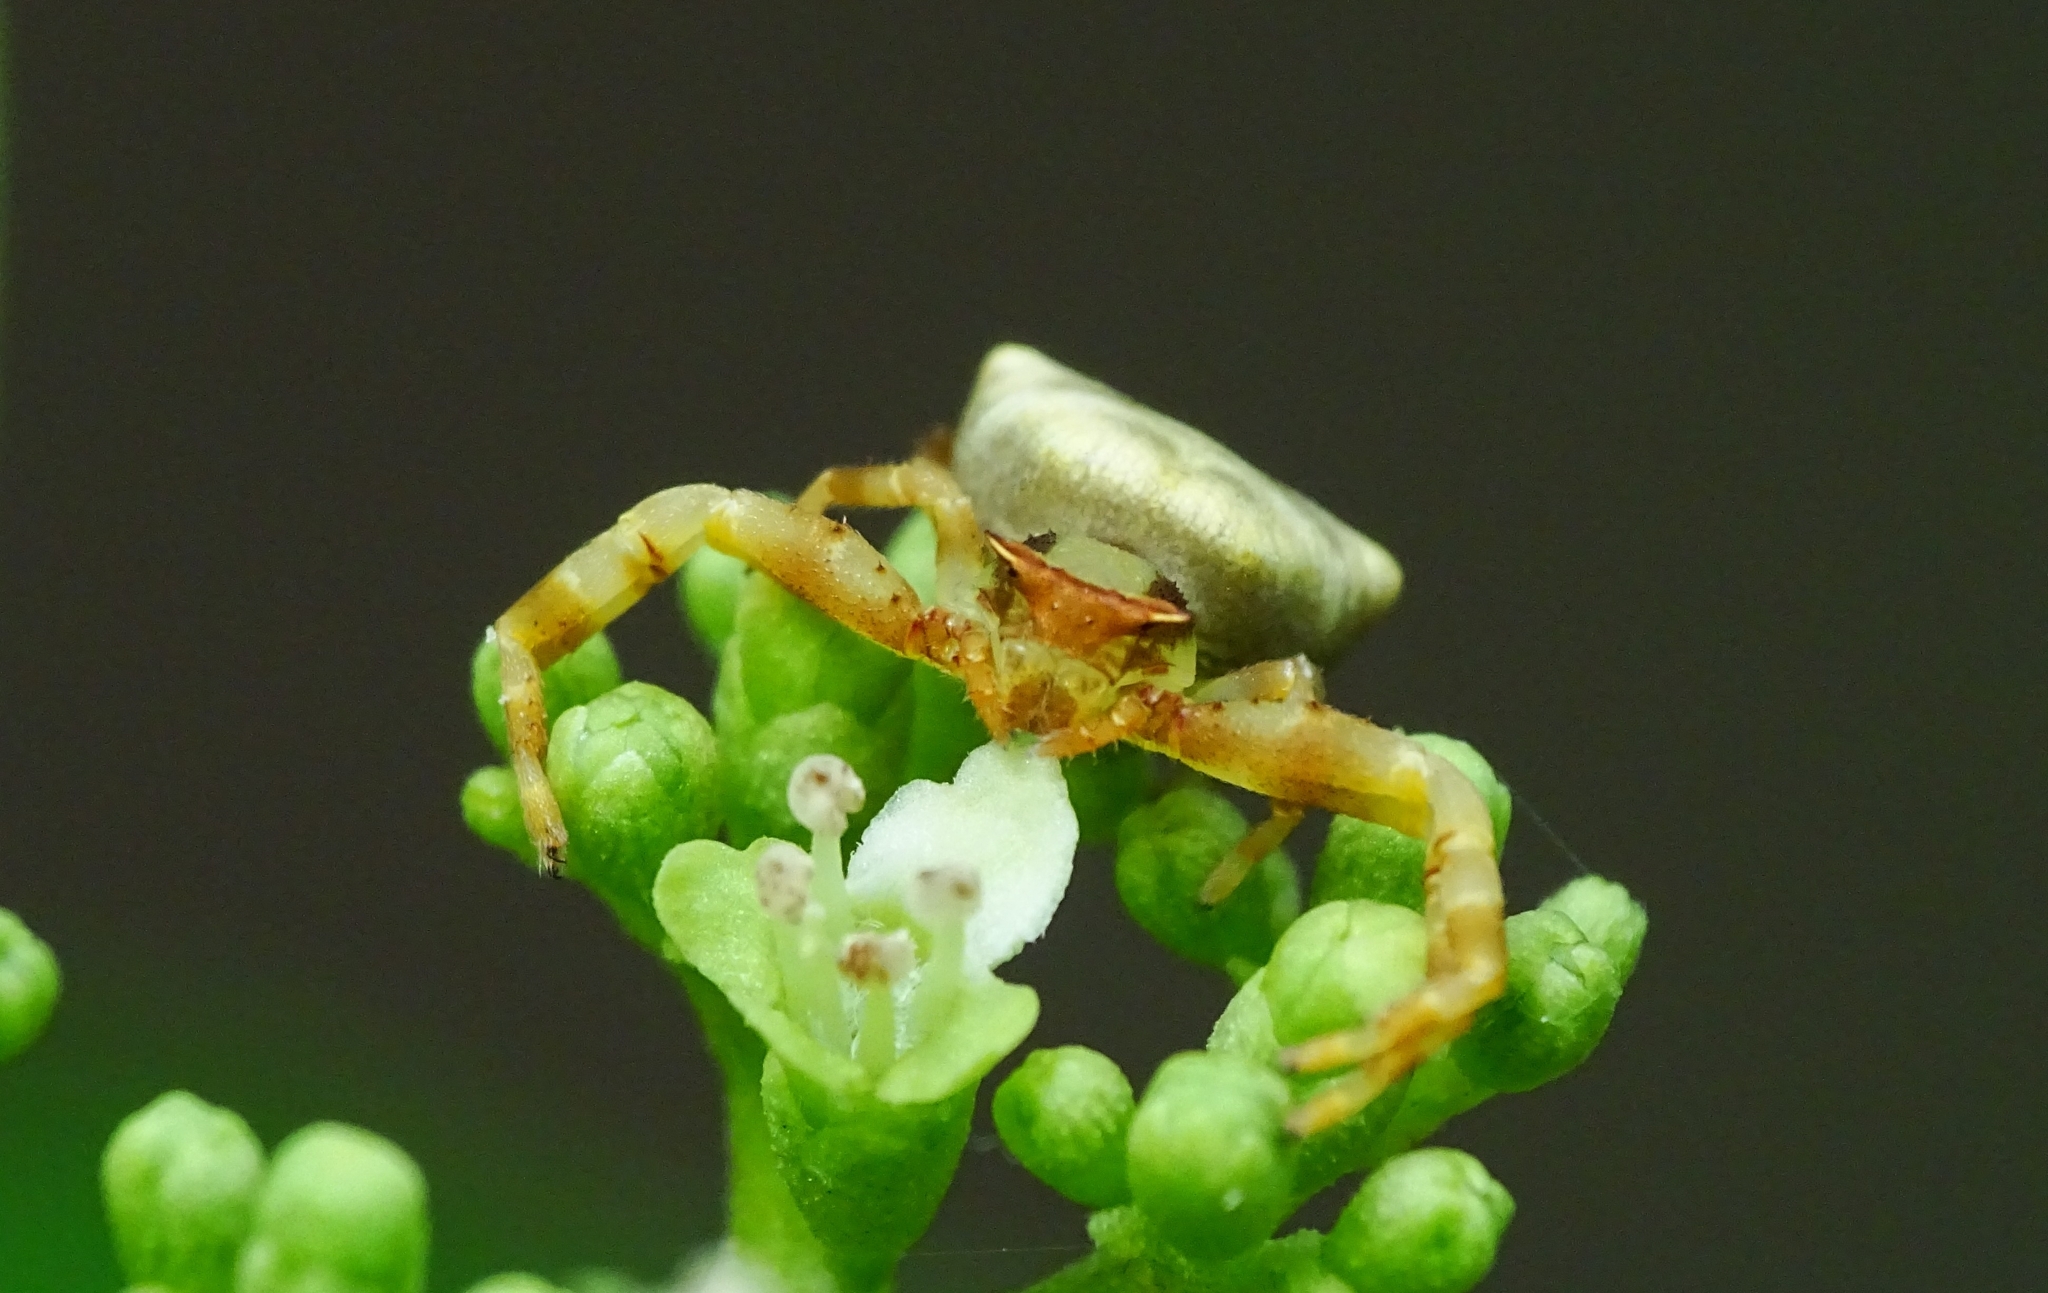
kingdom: Animalia
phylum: Arthropoda
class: Arachnida
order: Araneae
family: Thomisidae
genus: Thomisus
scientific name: Thomisus labefactus
